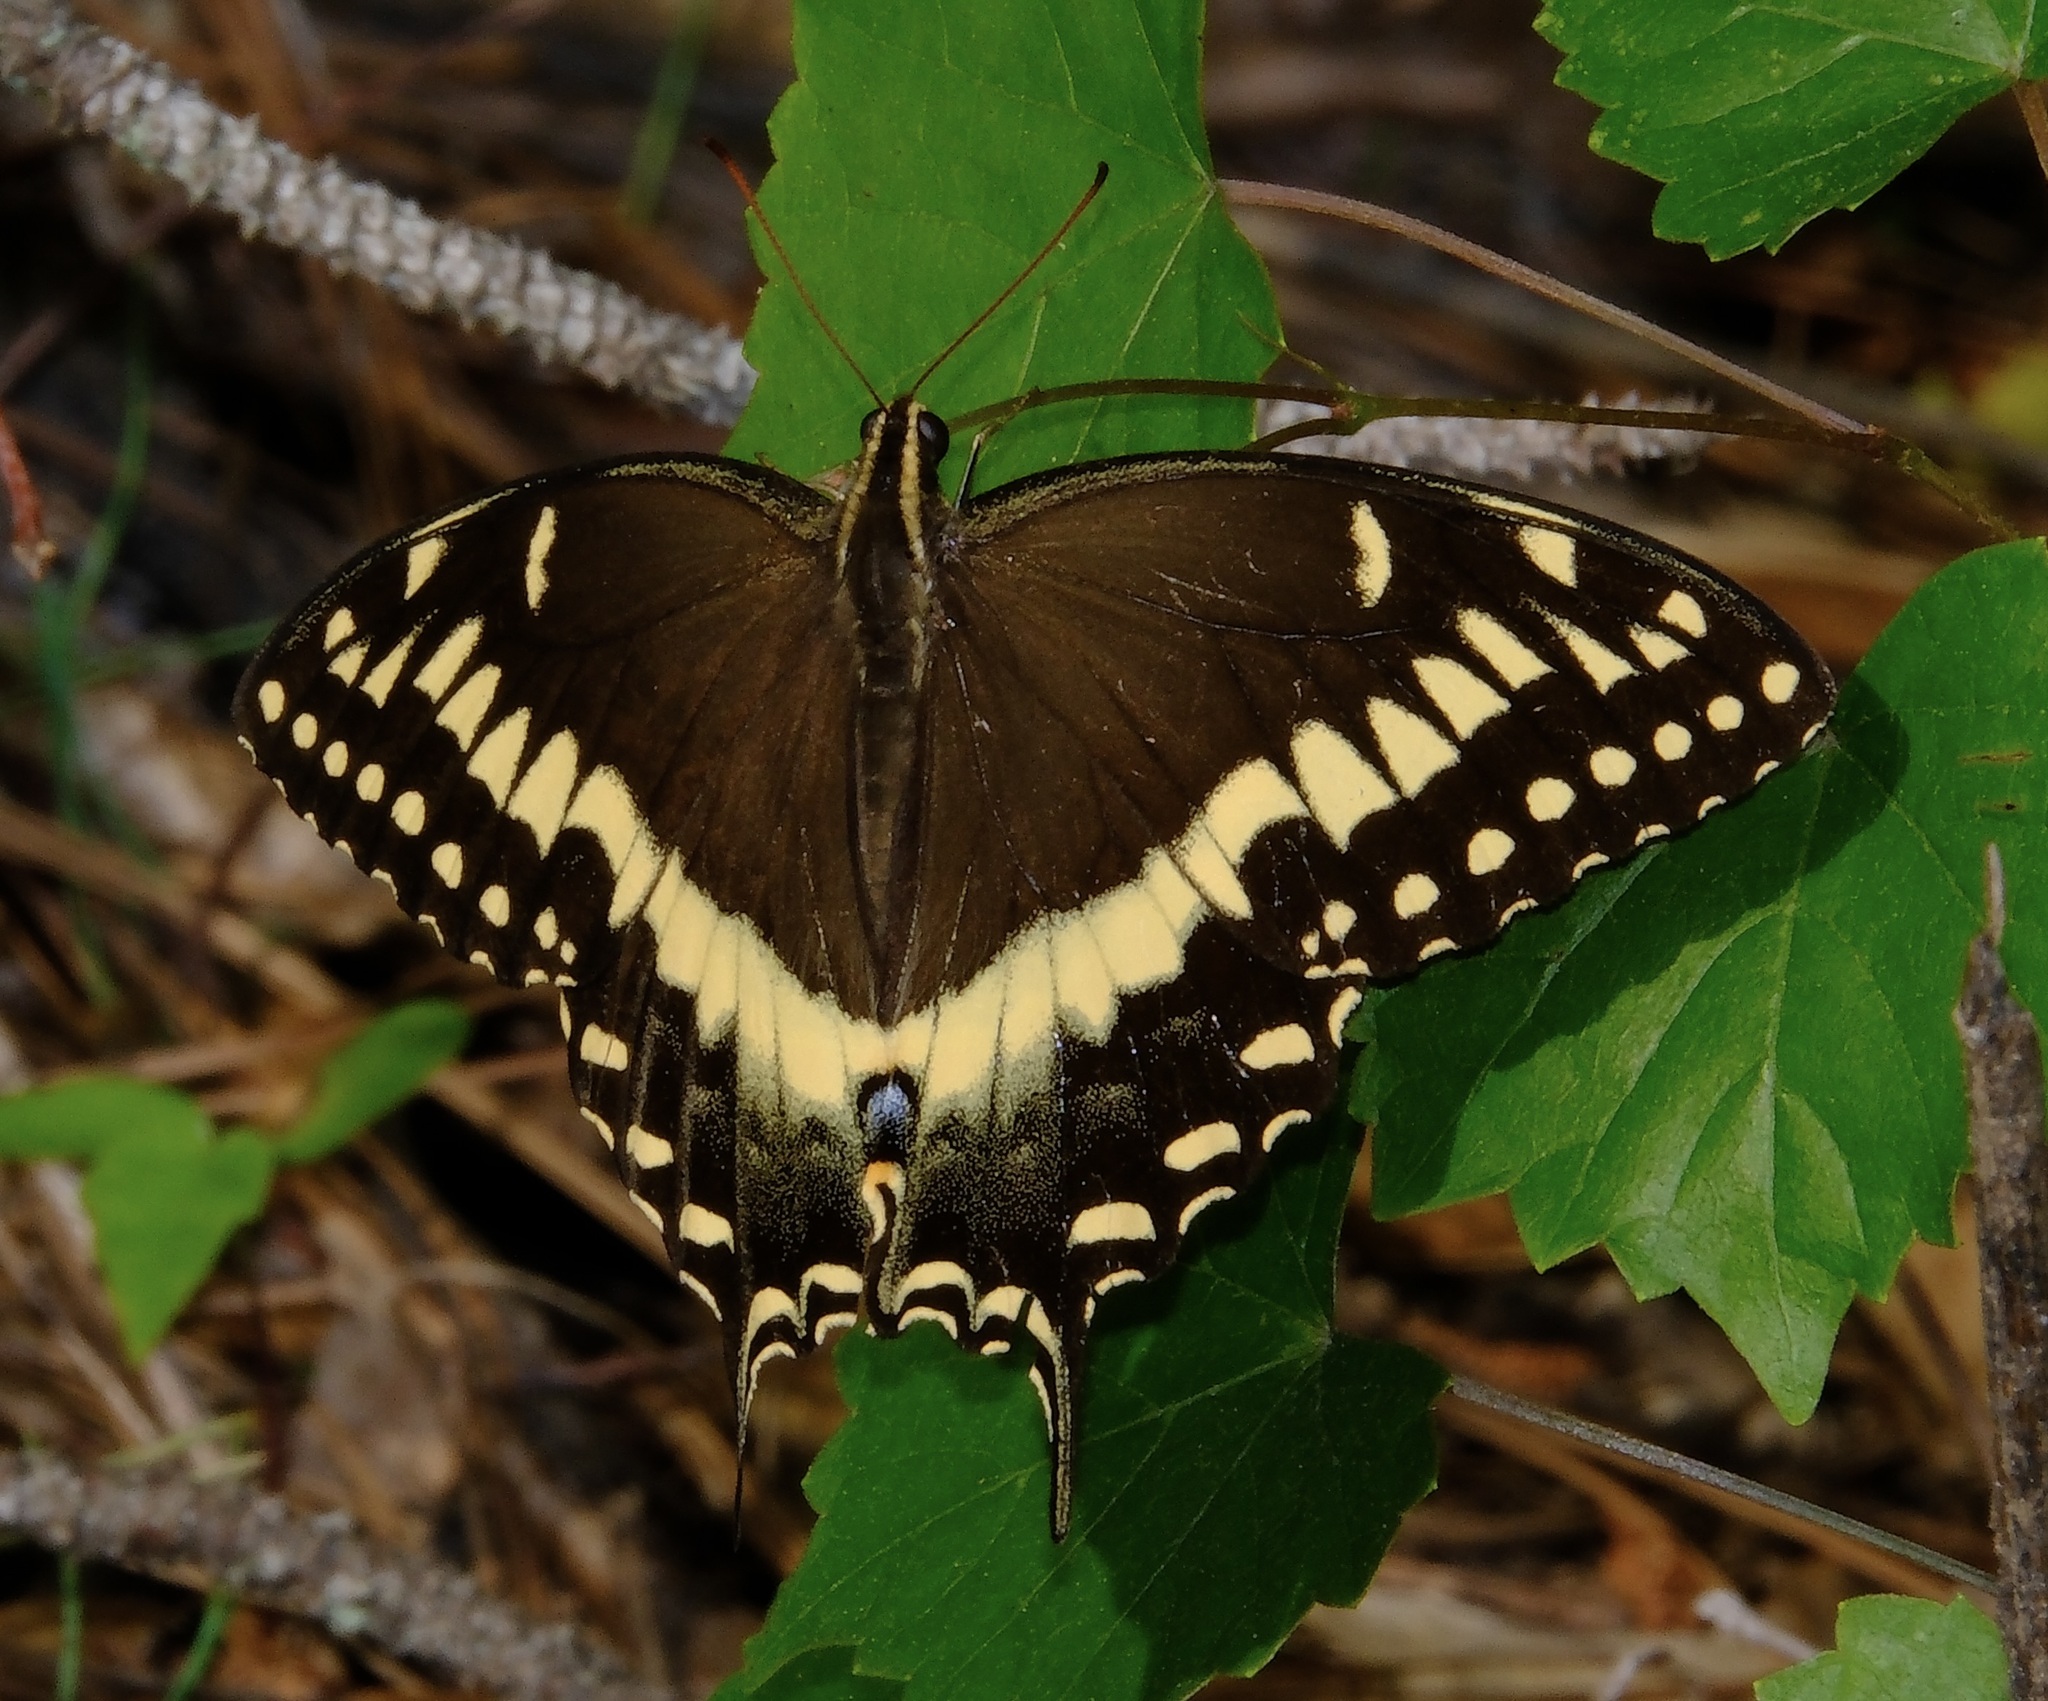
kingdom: Animalia
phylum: Arthropoda
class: Insecta
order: Lepidoptera
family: Papilionidae
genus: Papilio
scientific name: Papilio palamedes
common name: Palamedes swallowtail
